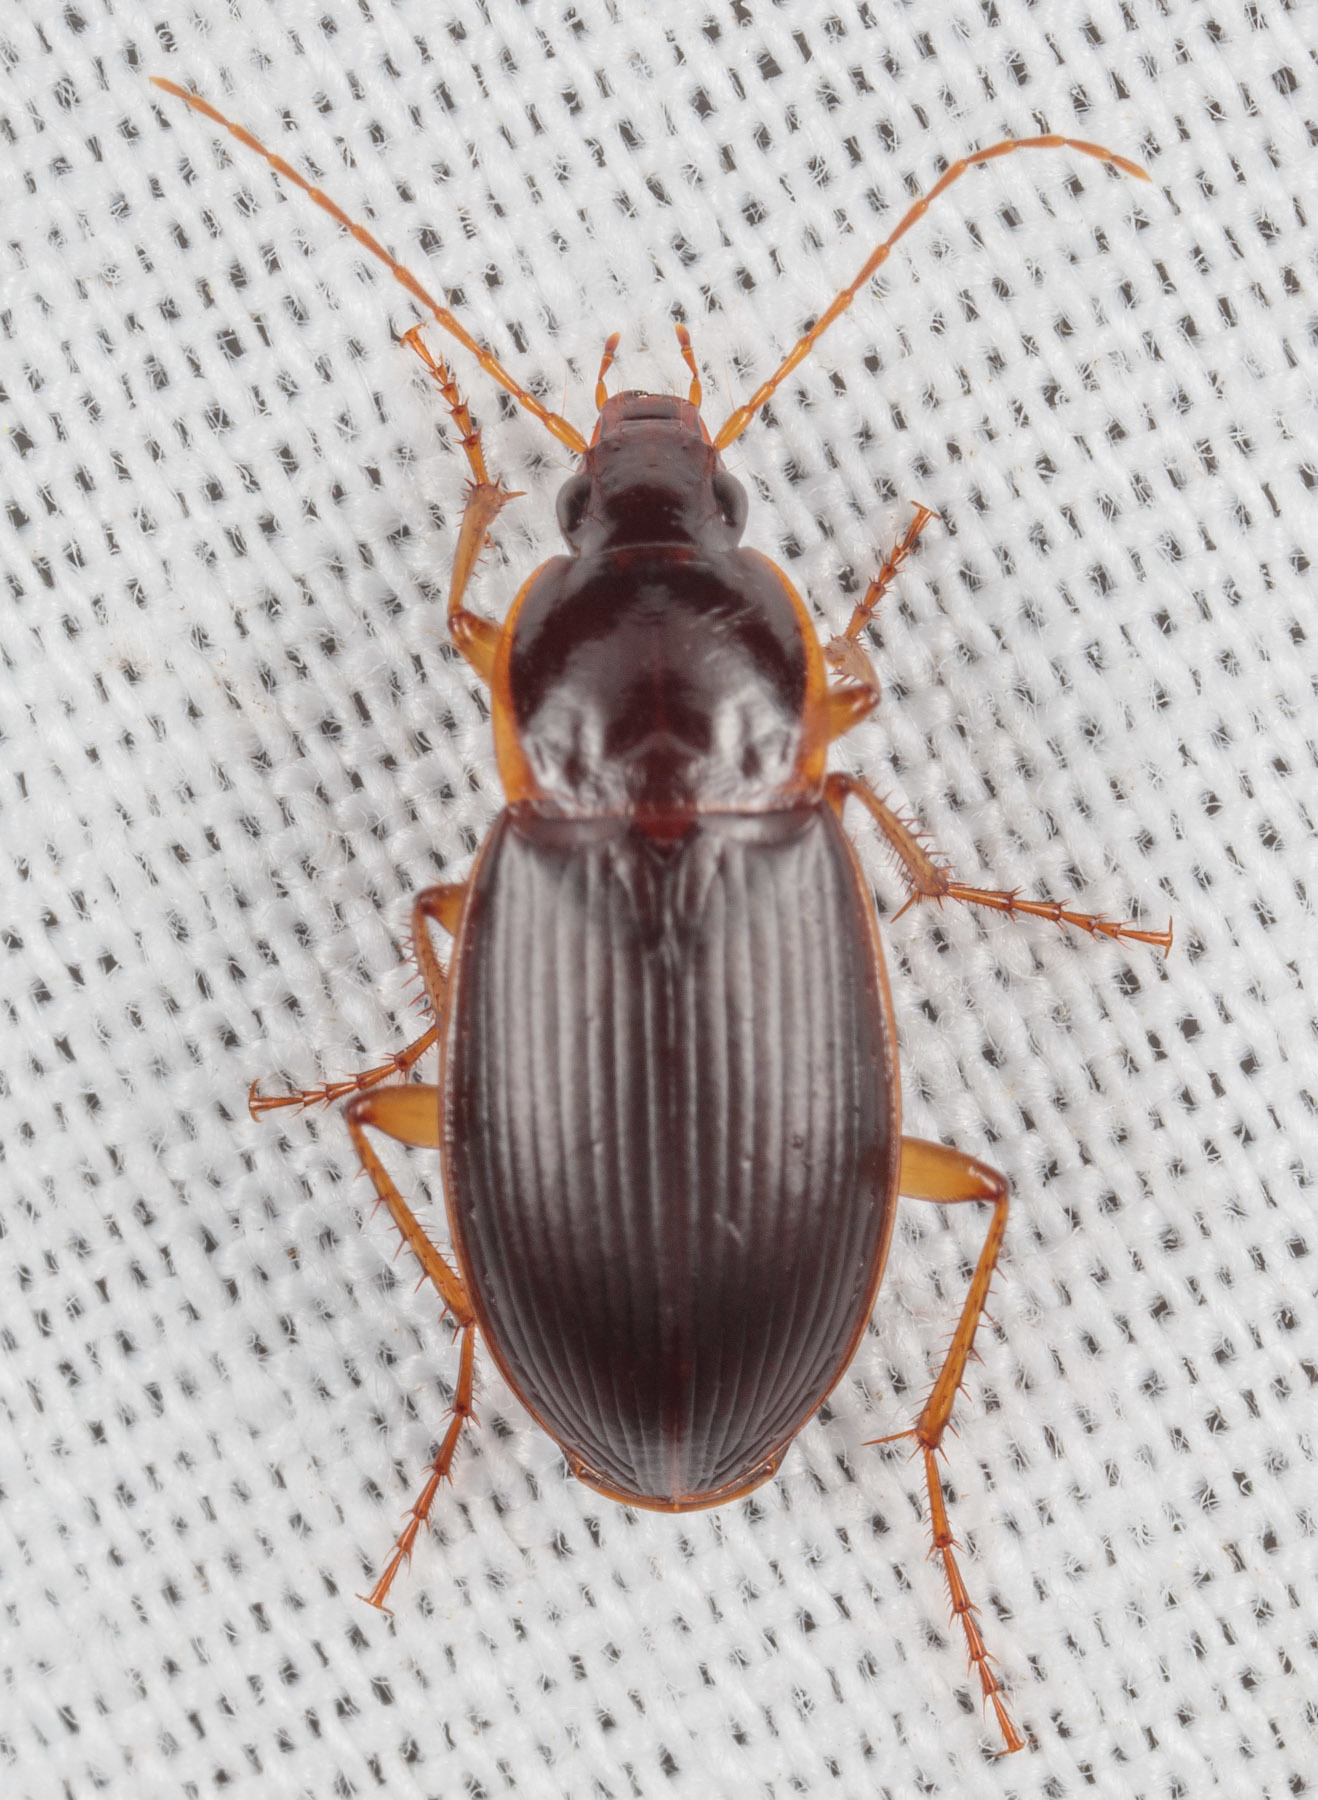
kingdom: Animalia
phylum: Arthropoda
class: Insecta
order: Coleoptera
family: Carabidae
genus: Calathus
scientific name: Calathus opaculus
